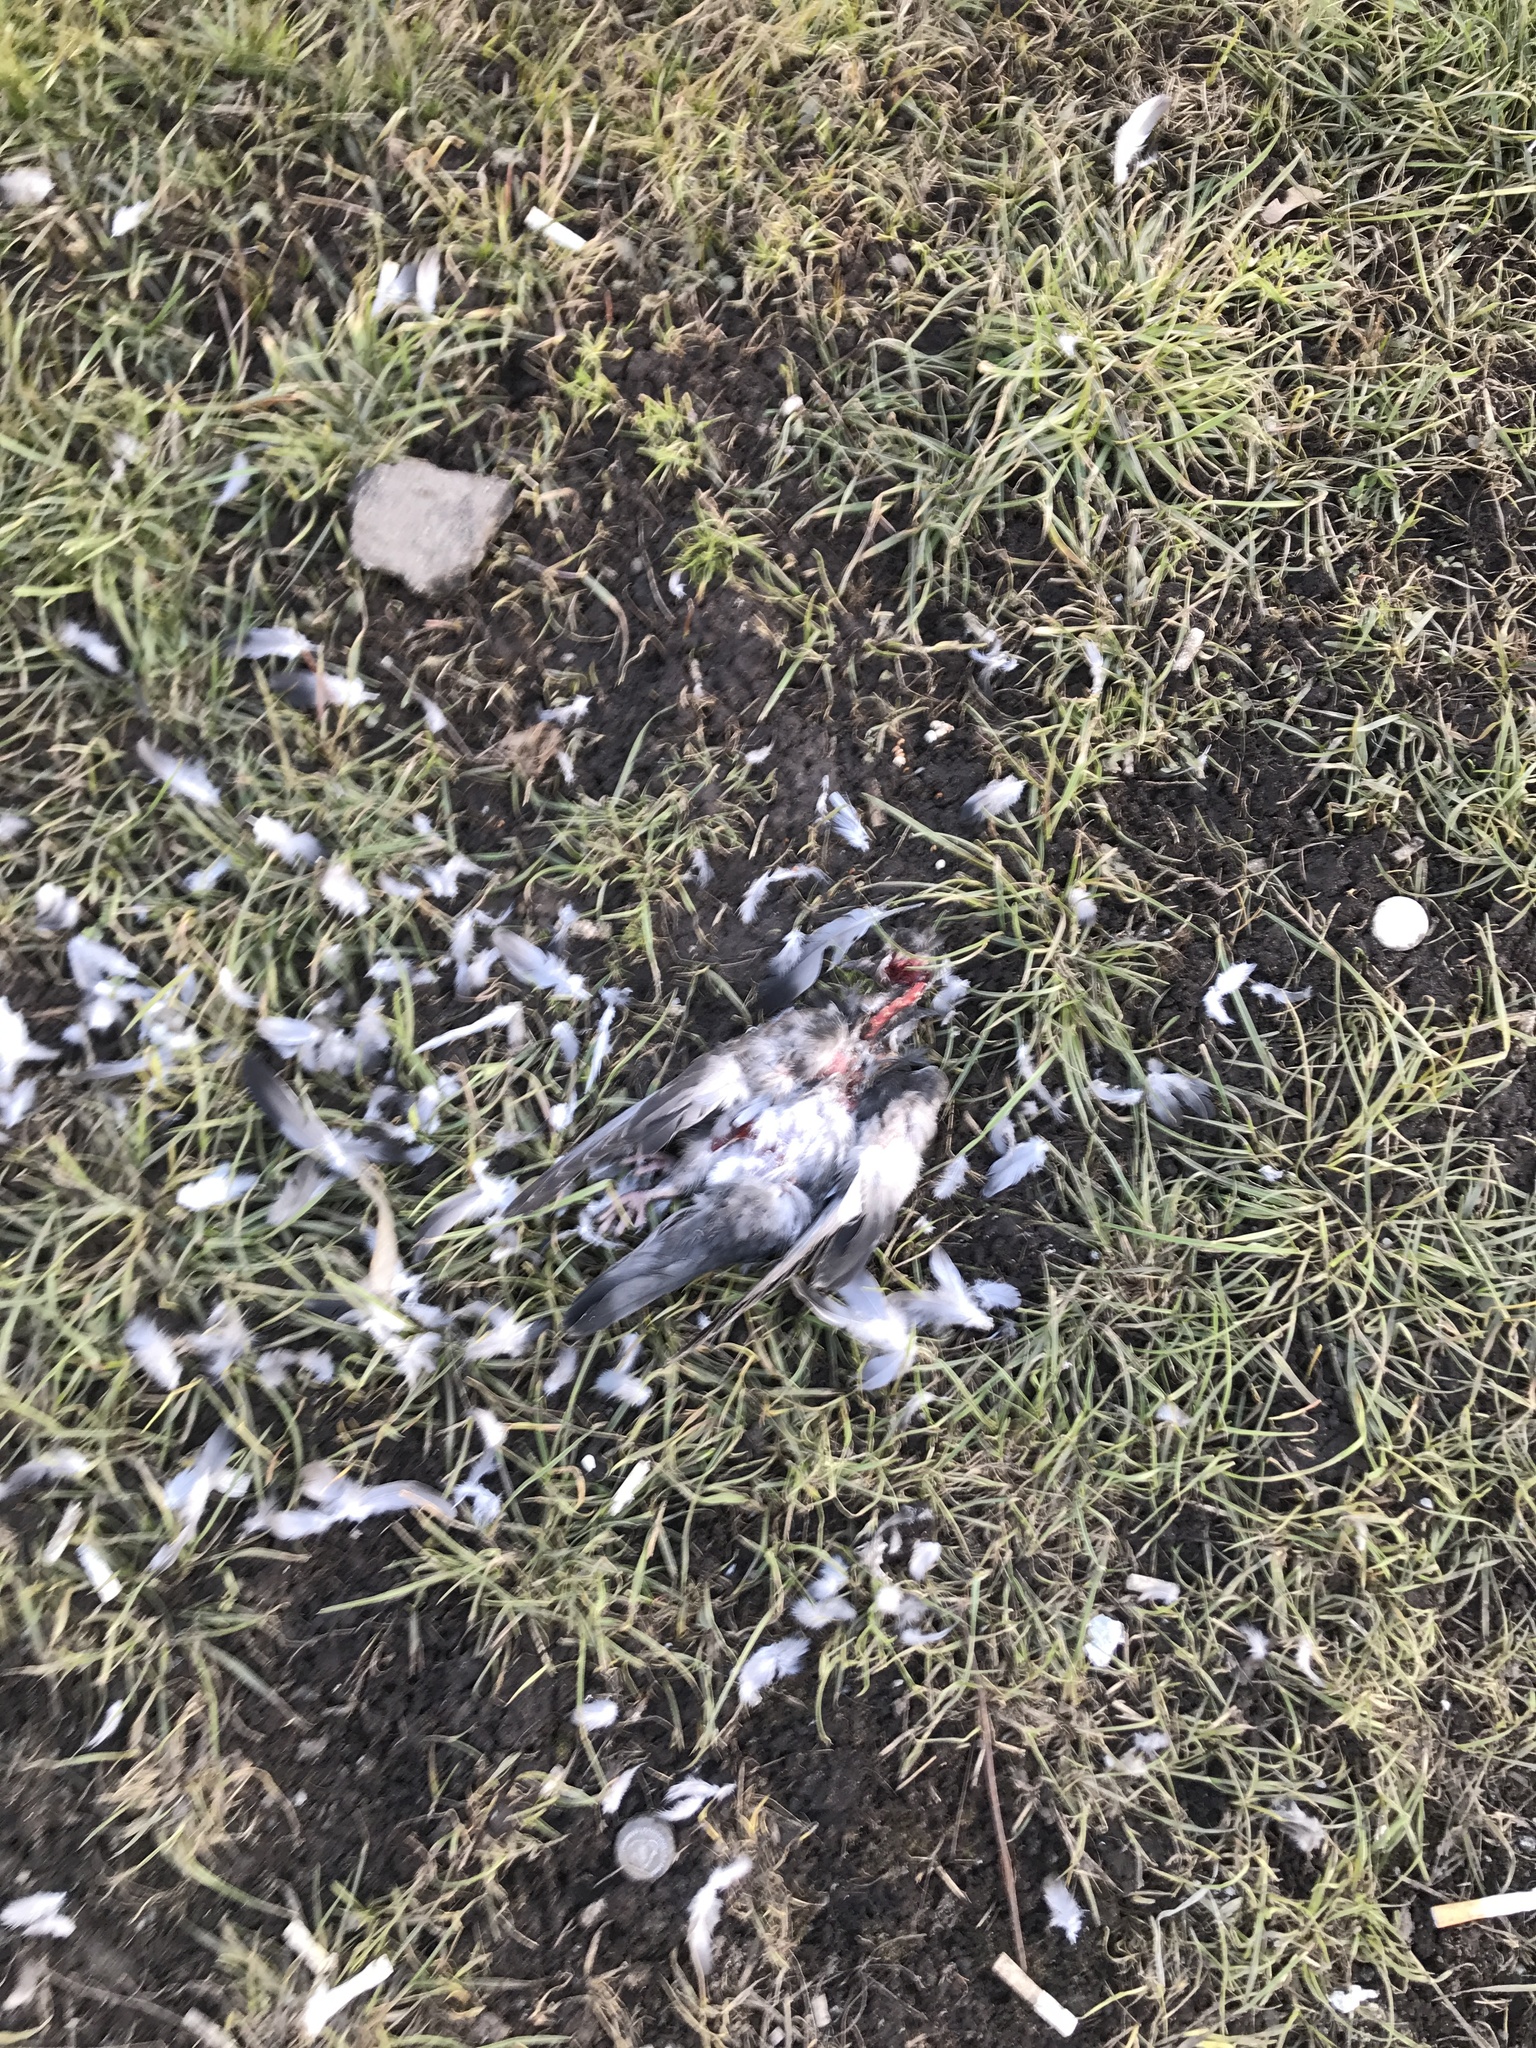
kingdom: Animalia
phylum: Chordata
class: Aves
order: Columbiformes
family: Columbidae
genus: Columba
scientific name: Columba livia
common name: Rock pigeon
